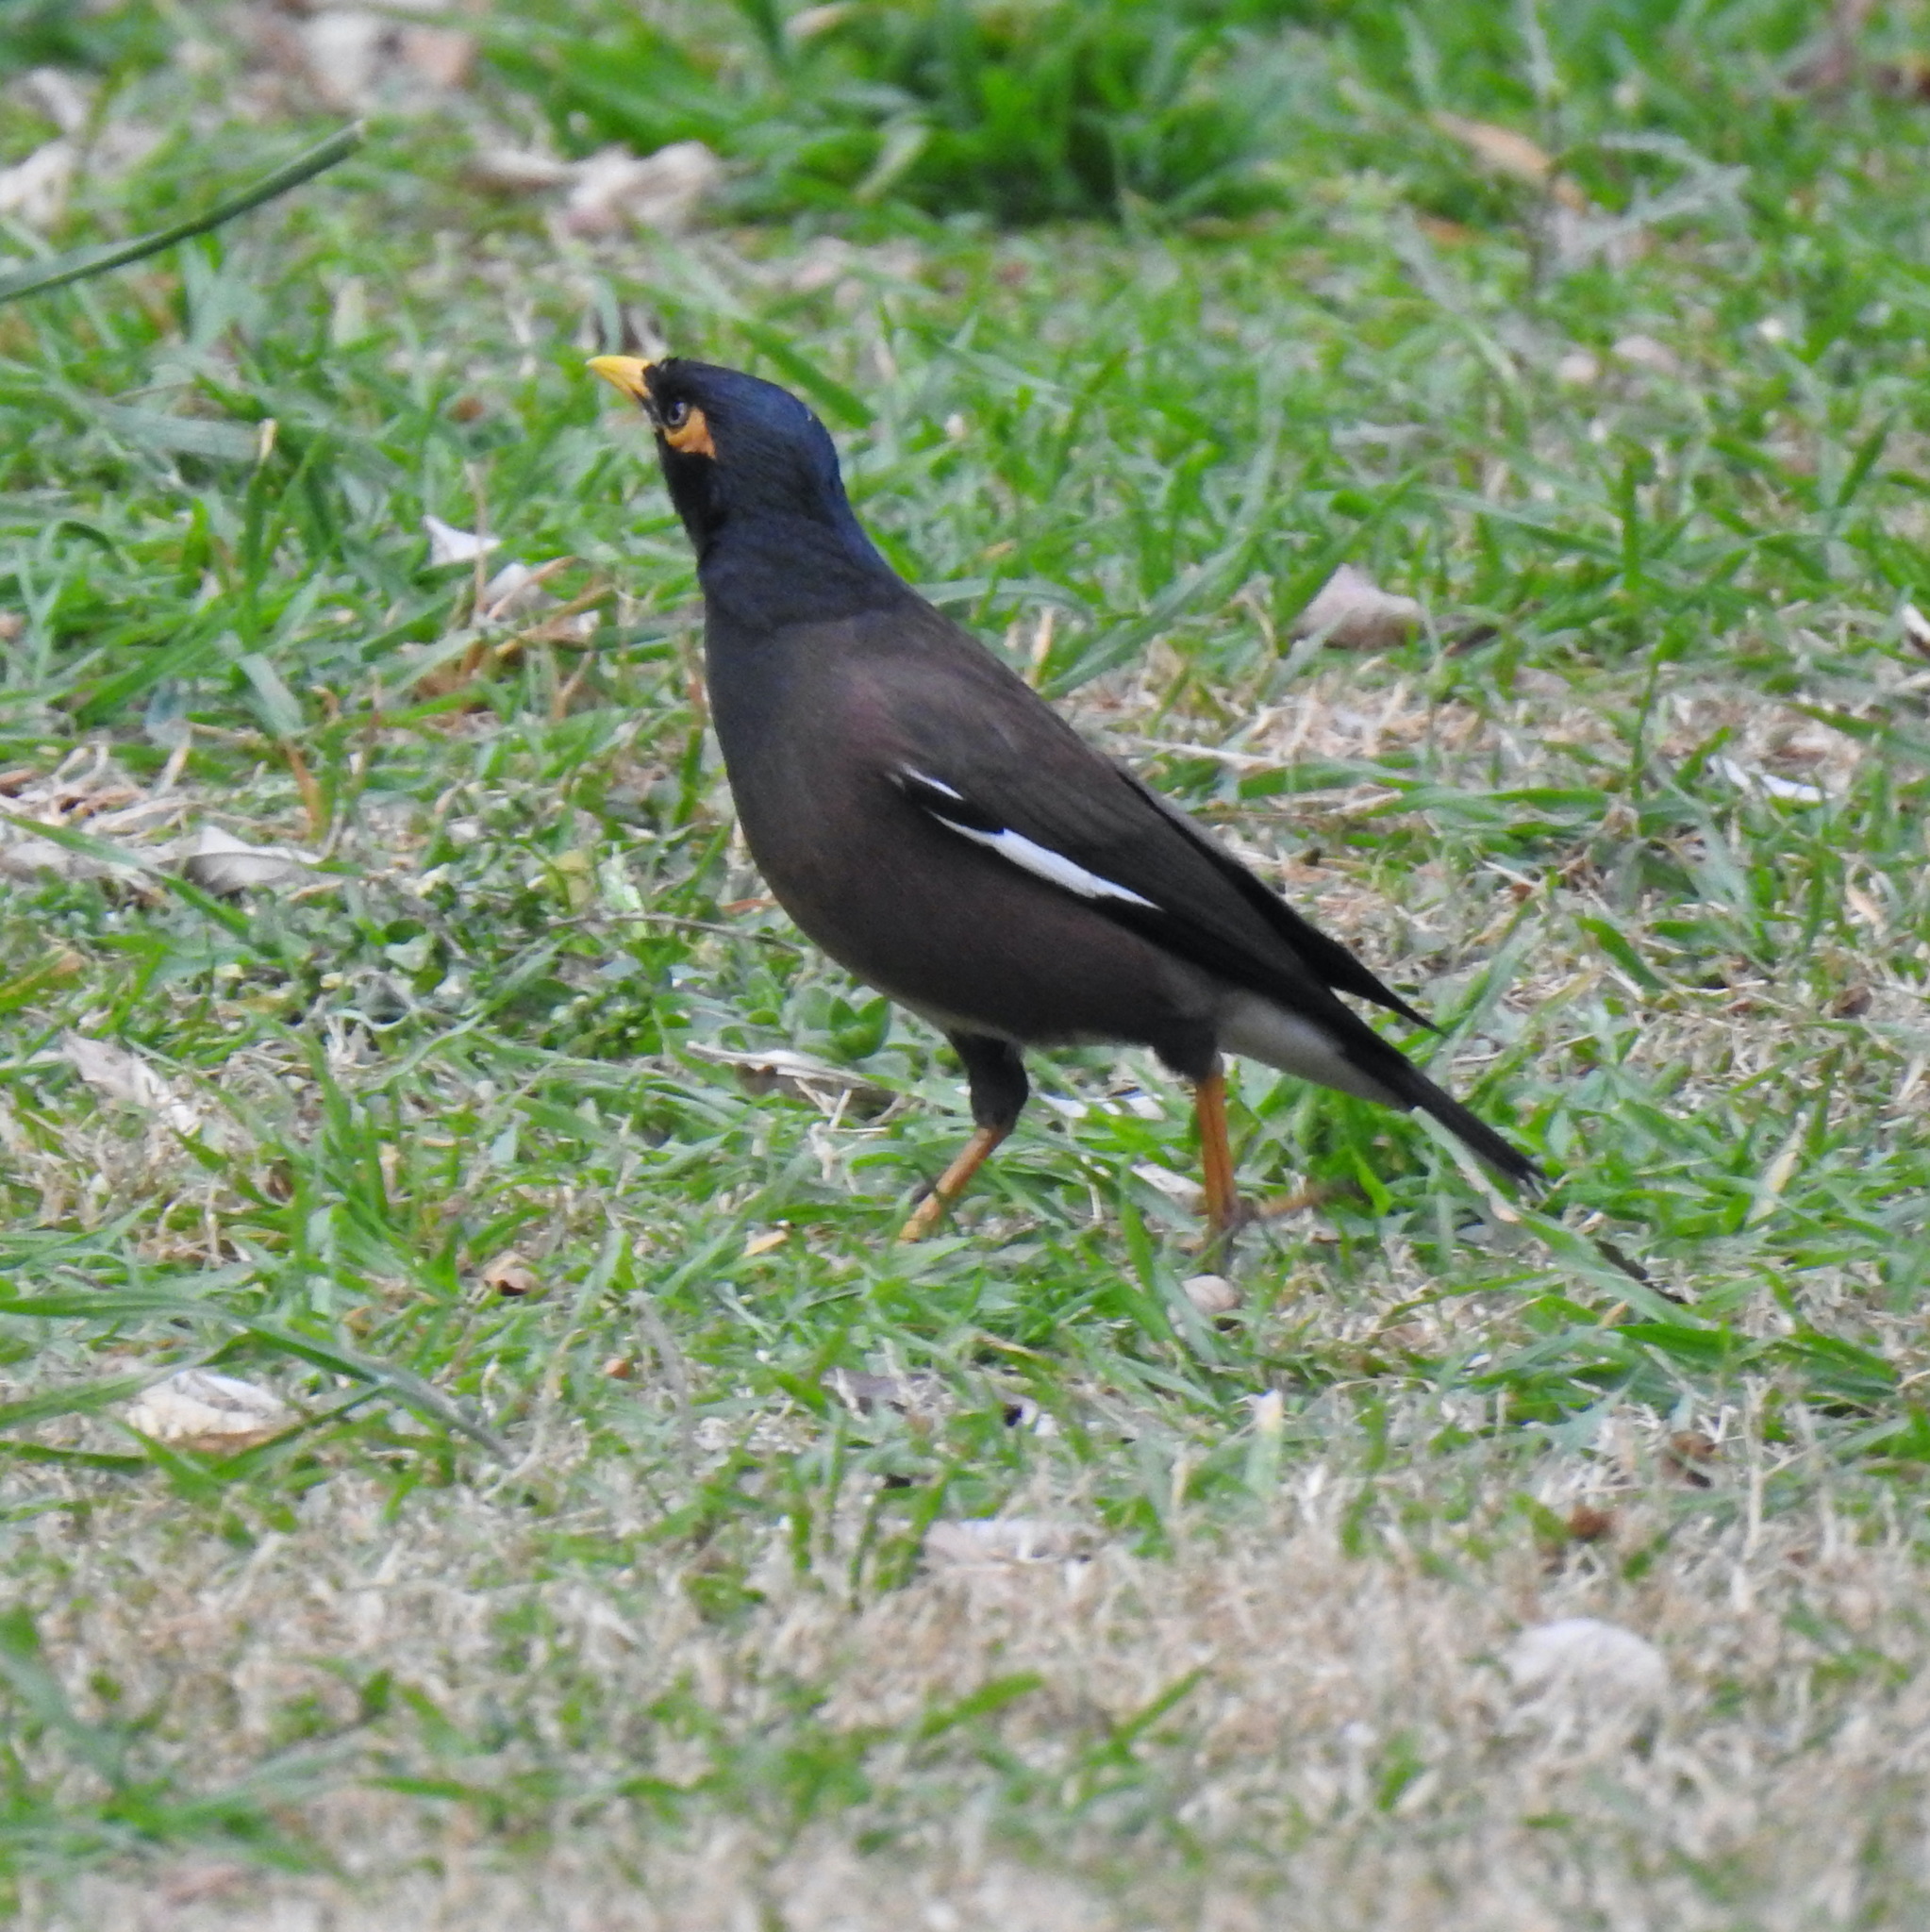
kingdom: Animalia
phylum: Chordata
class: Aves
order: Passeriformes
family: Sturnidae
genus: Acridotheres
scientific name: Acridotheres tristis
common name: Common myna
